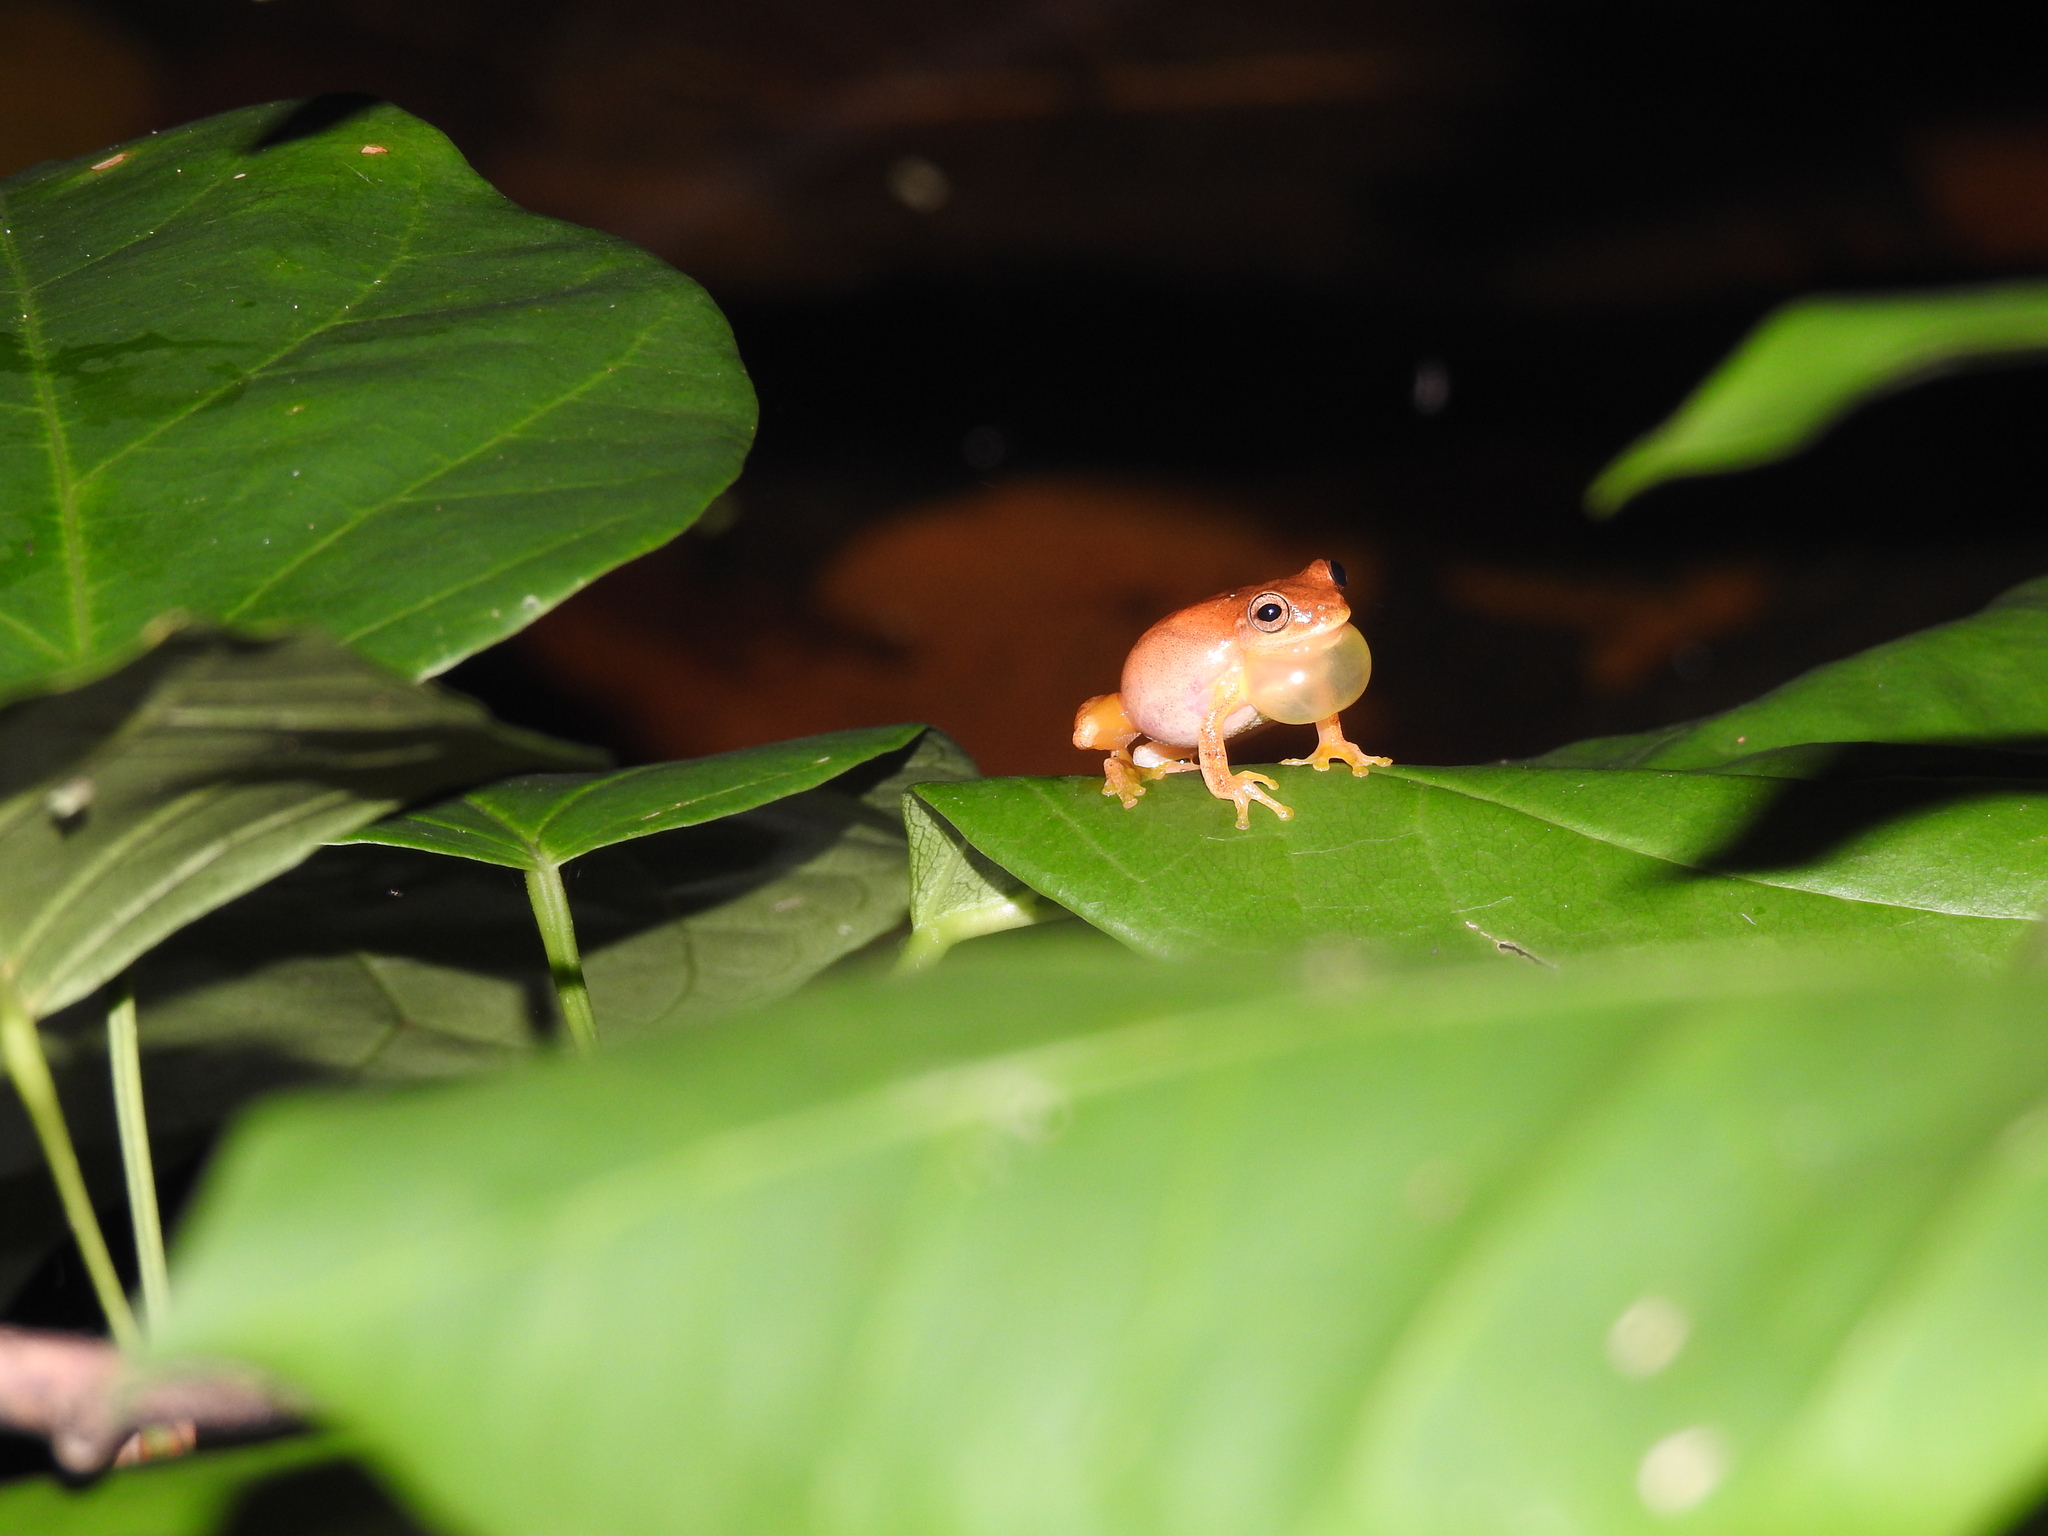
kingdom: Animalia
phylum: Chordata
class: Amphibia
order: Anura
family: Hylidae
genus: Dendropsophus
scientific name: Dendropsophus microcephalus
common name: Small-headed treefrog
